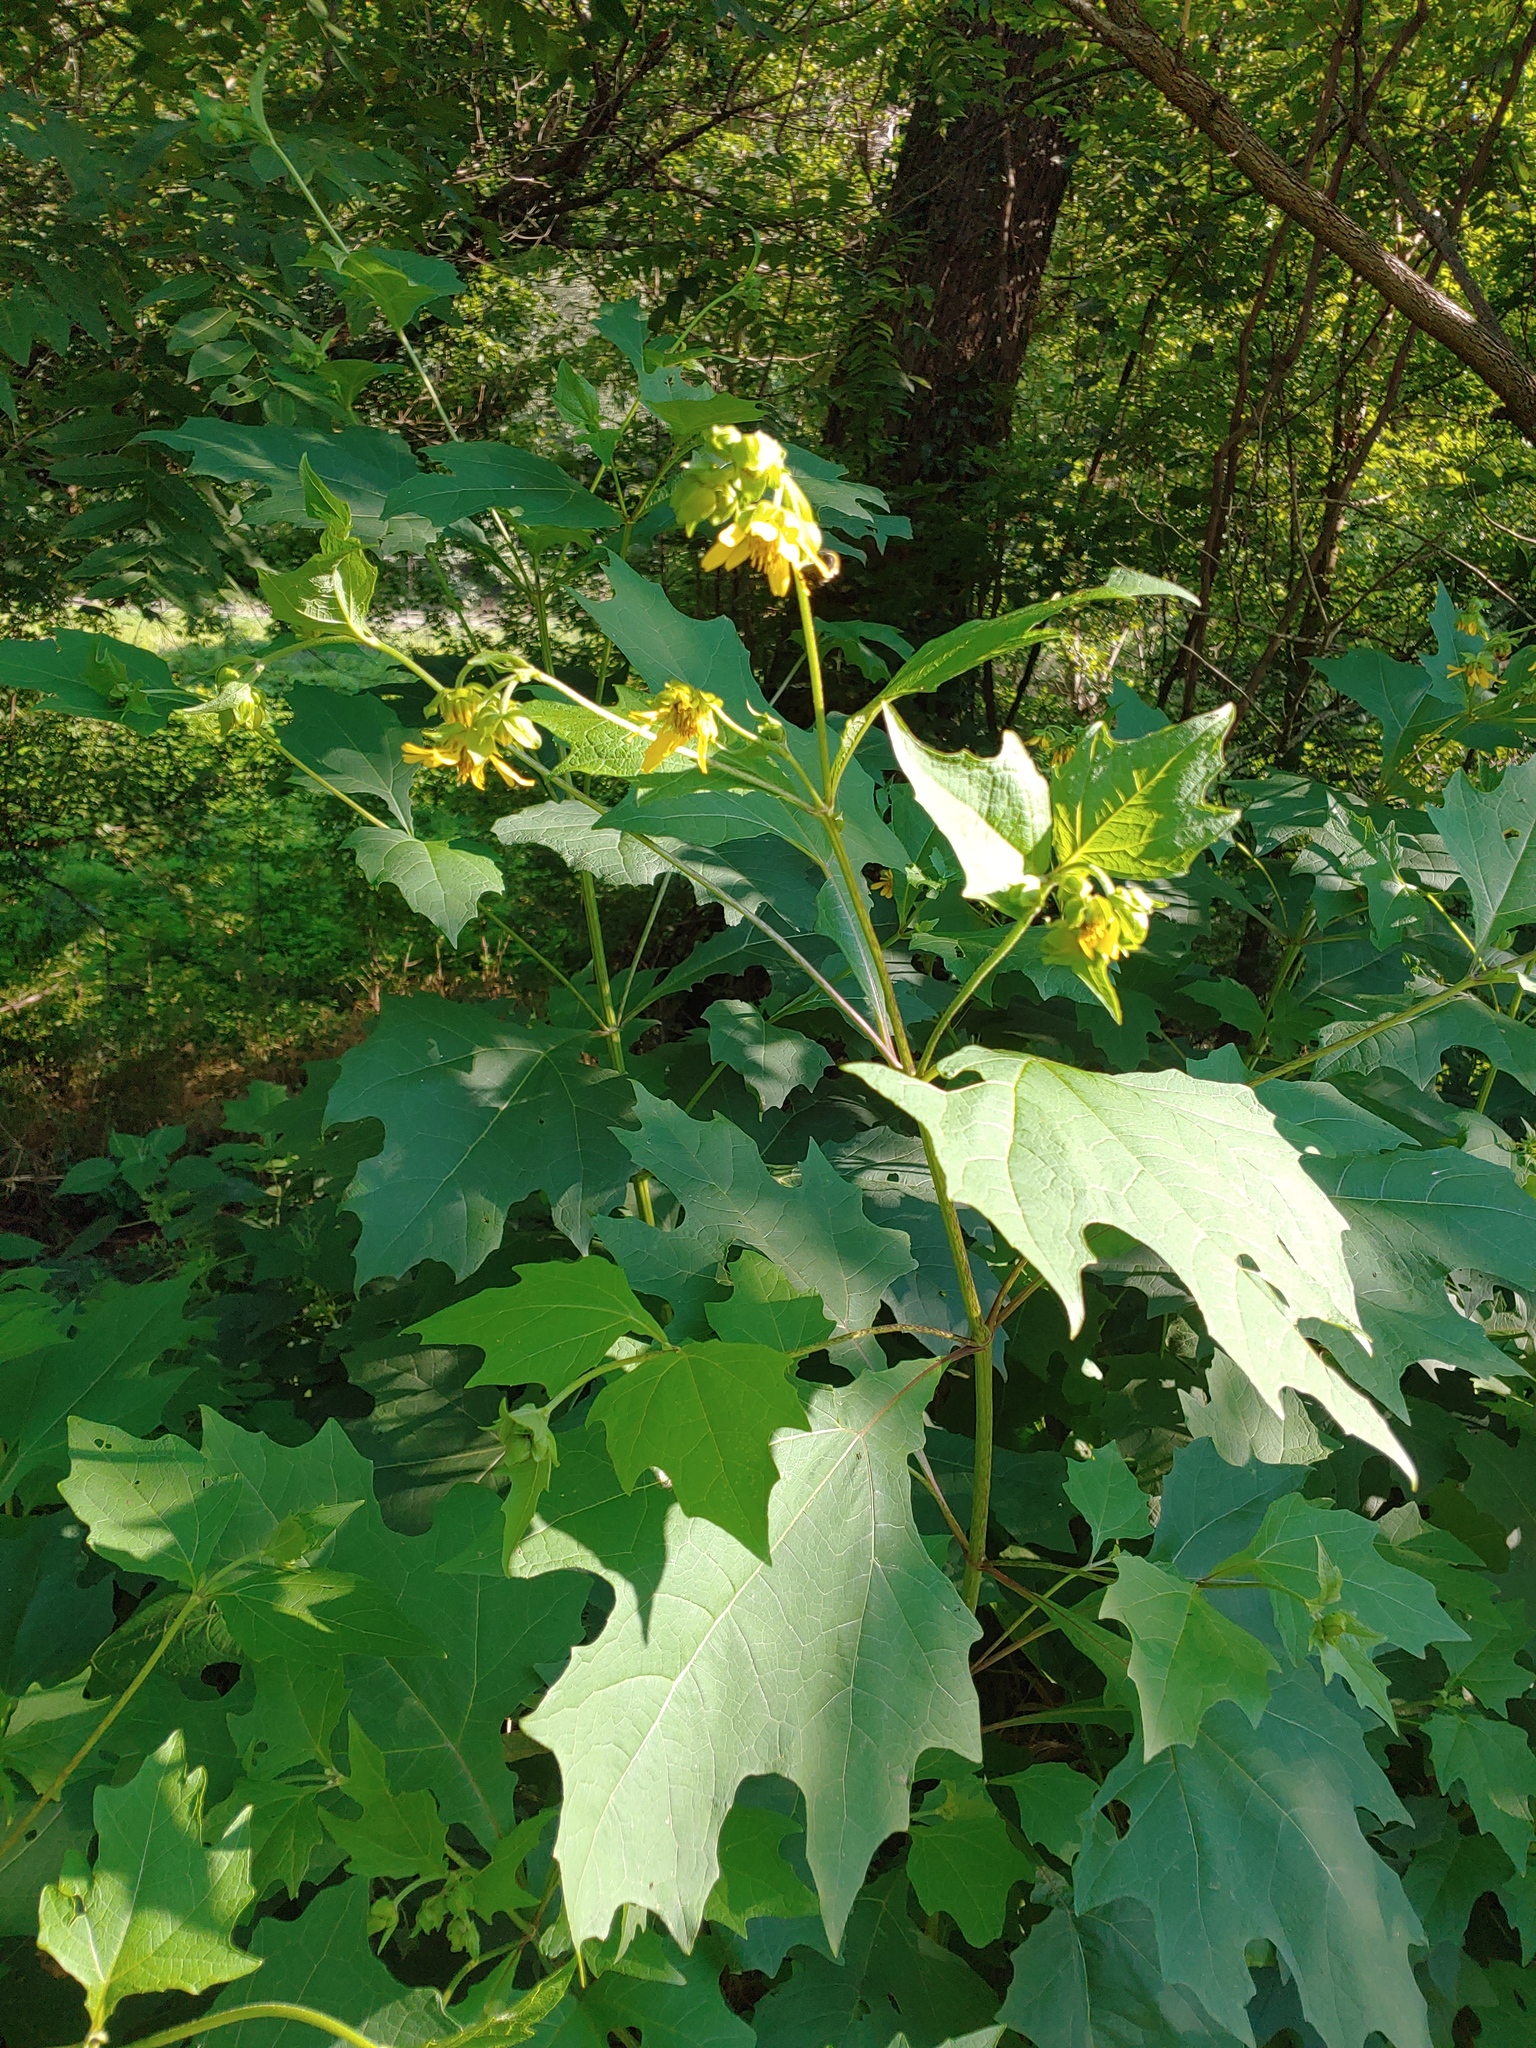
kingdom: Plantae
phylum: Tracheophyta
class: Magnoliopsida
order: Asterales
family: Asteraceae
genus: Smallanthus
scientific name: Smallanthus uvedalia
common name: Bear's-foot
